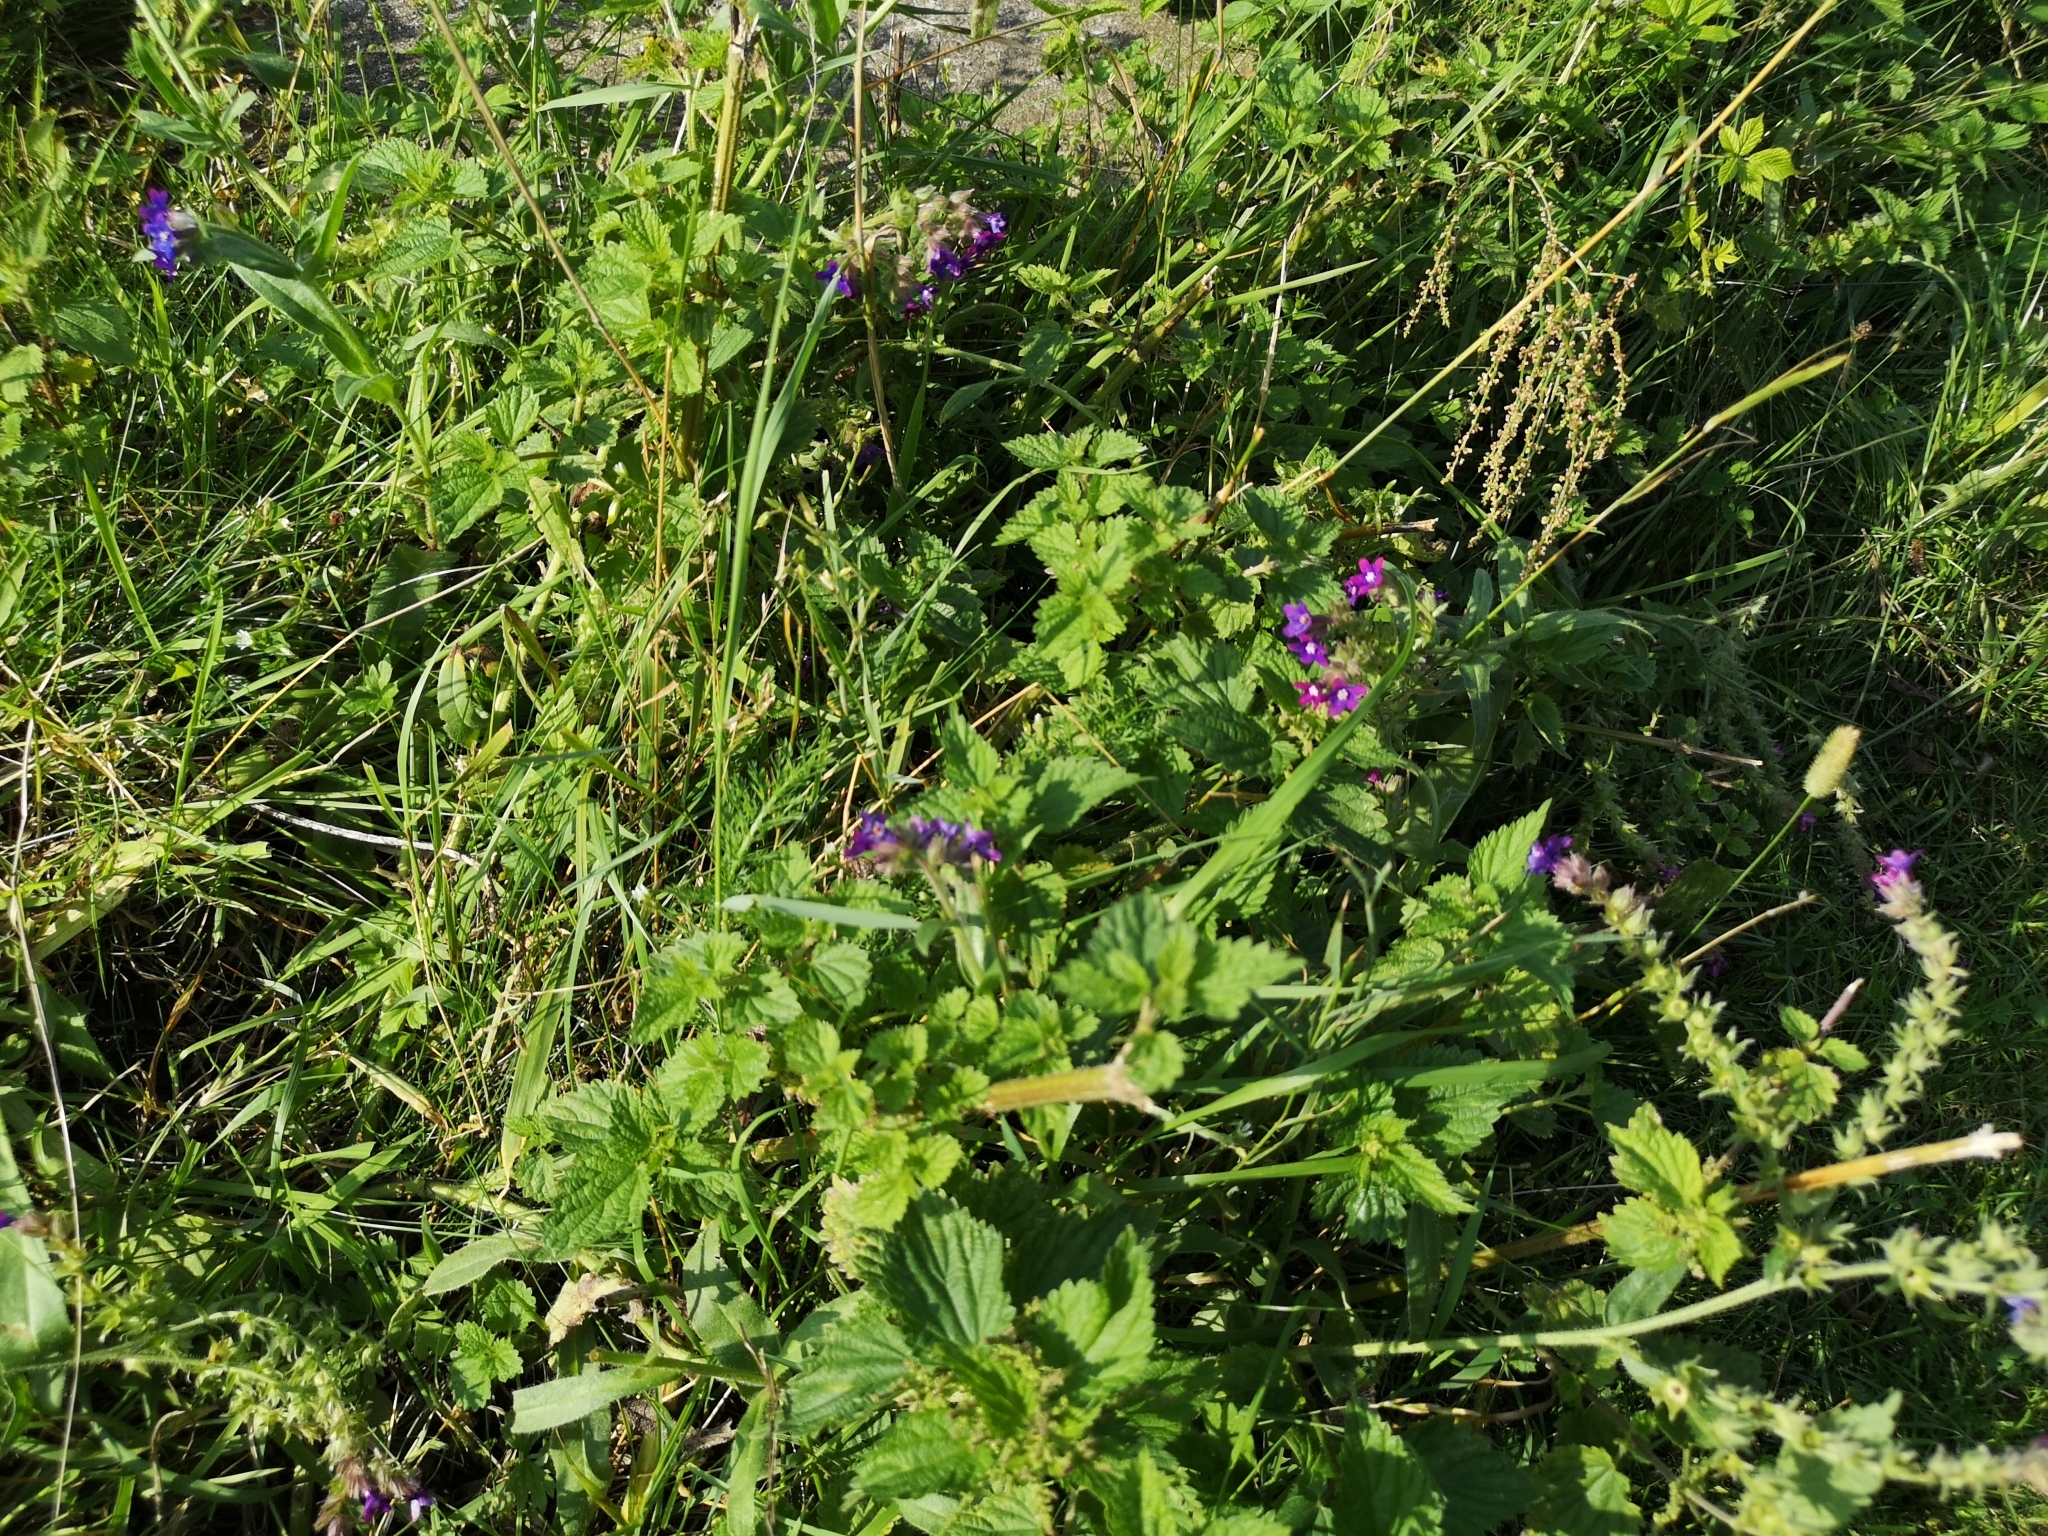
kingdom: Plantae
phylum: Tracheophyta
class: Magnoliopsida
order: Boraginales
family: Boraginaceae
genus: Anchusa
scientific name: Anchusa officinalis
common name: Alkanet
